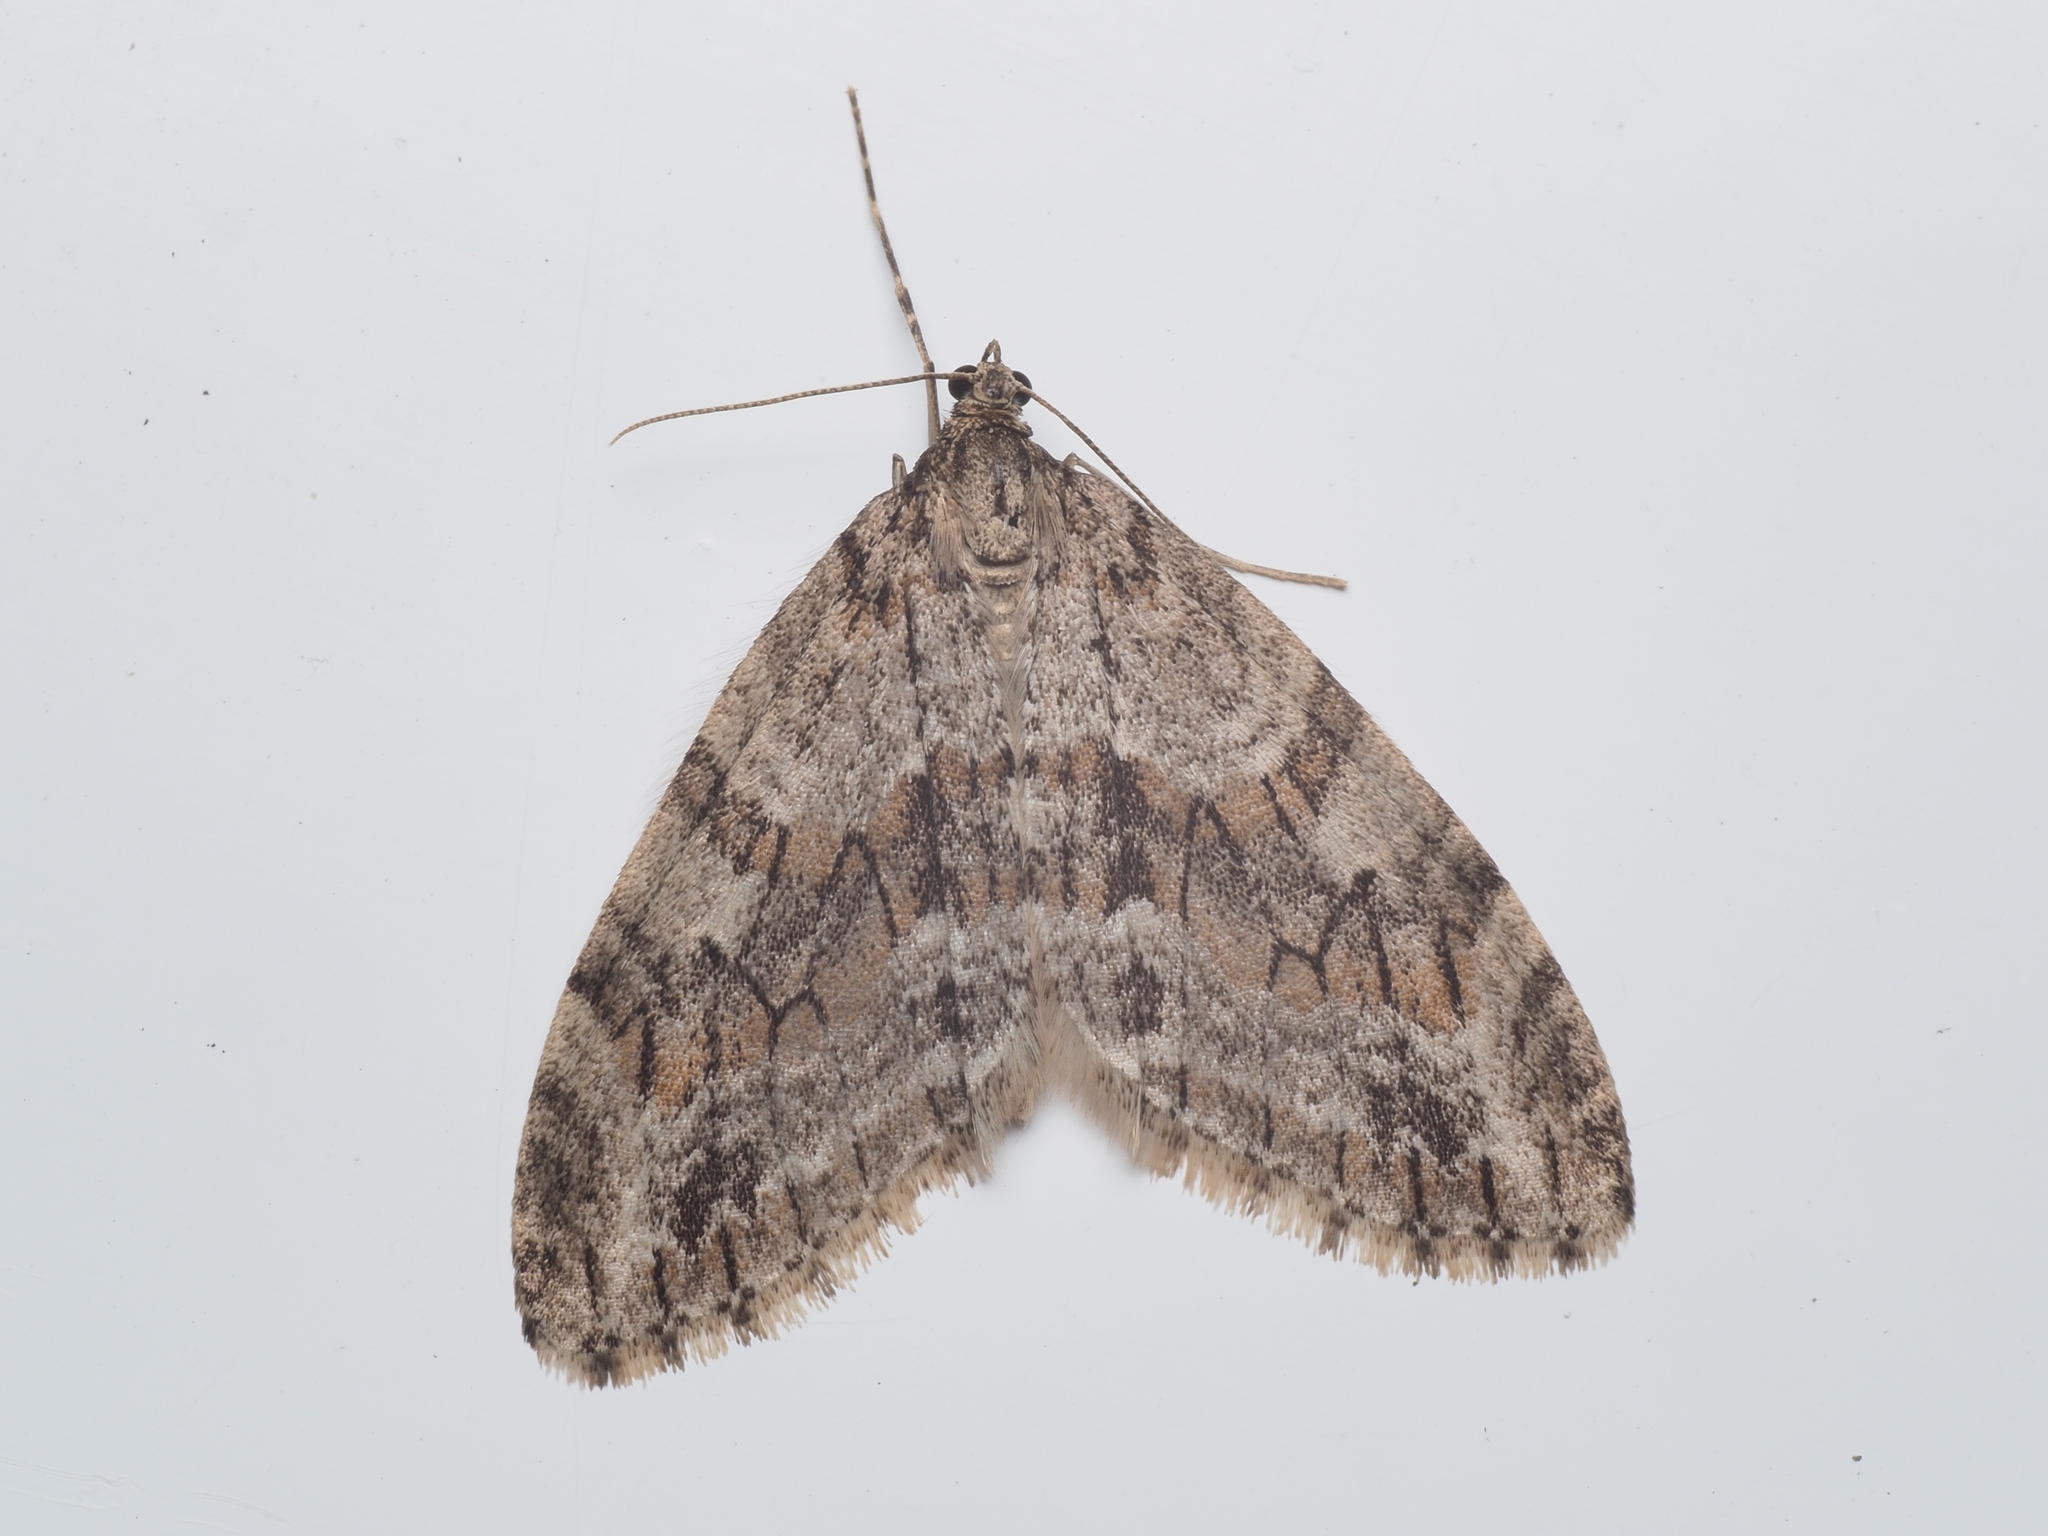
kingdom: Animalia
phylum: Arthropoda
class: Insecta
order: Lepidoptera
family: Geometridae
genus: Trichopteryx
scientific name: Trichopteryx polycommata
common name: Barred tooth-striped
